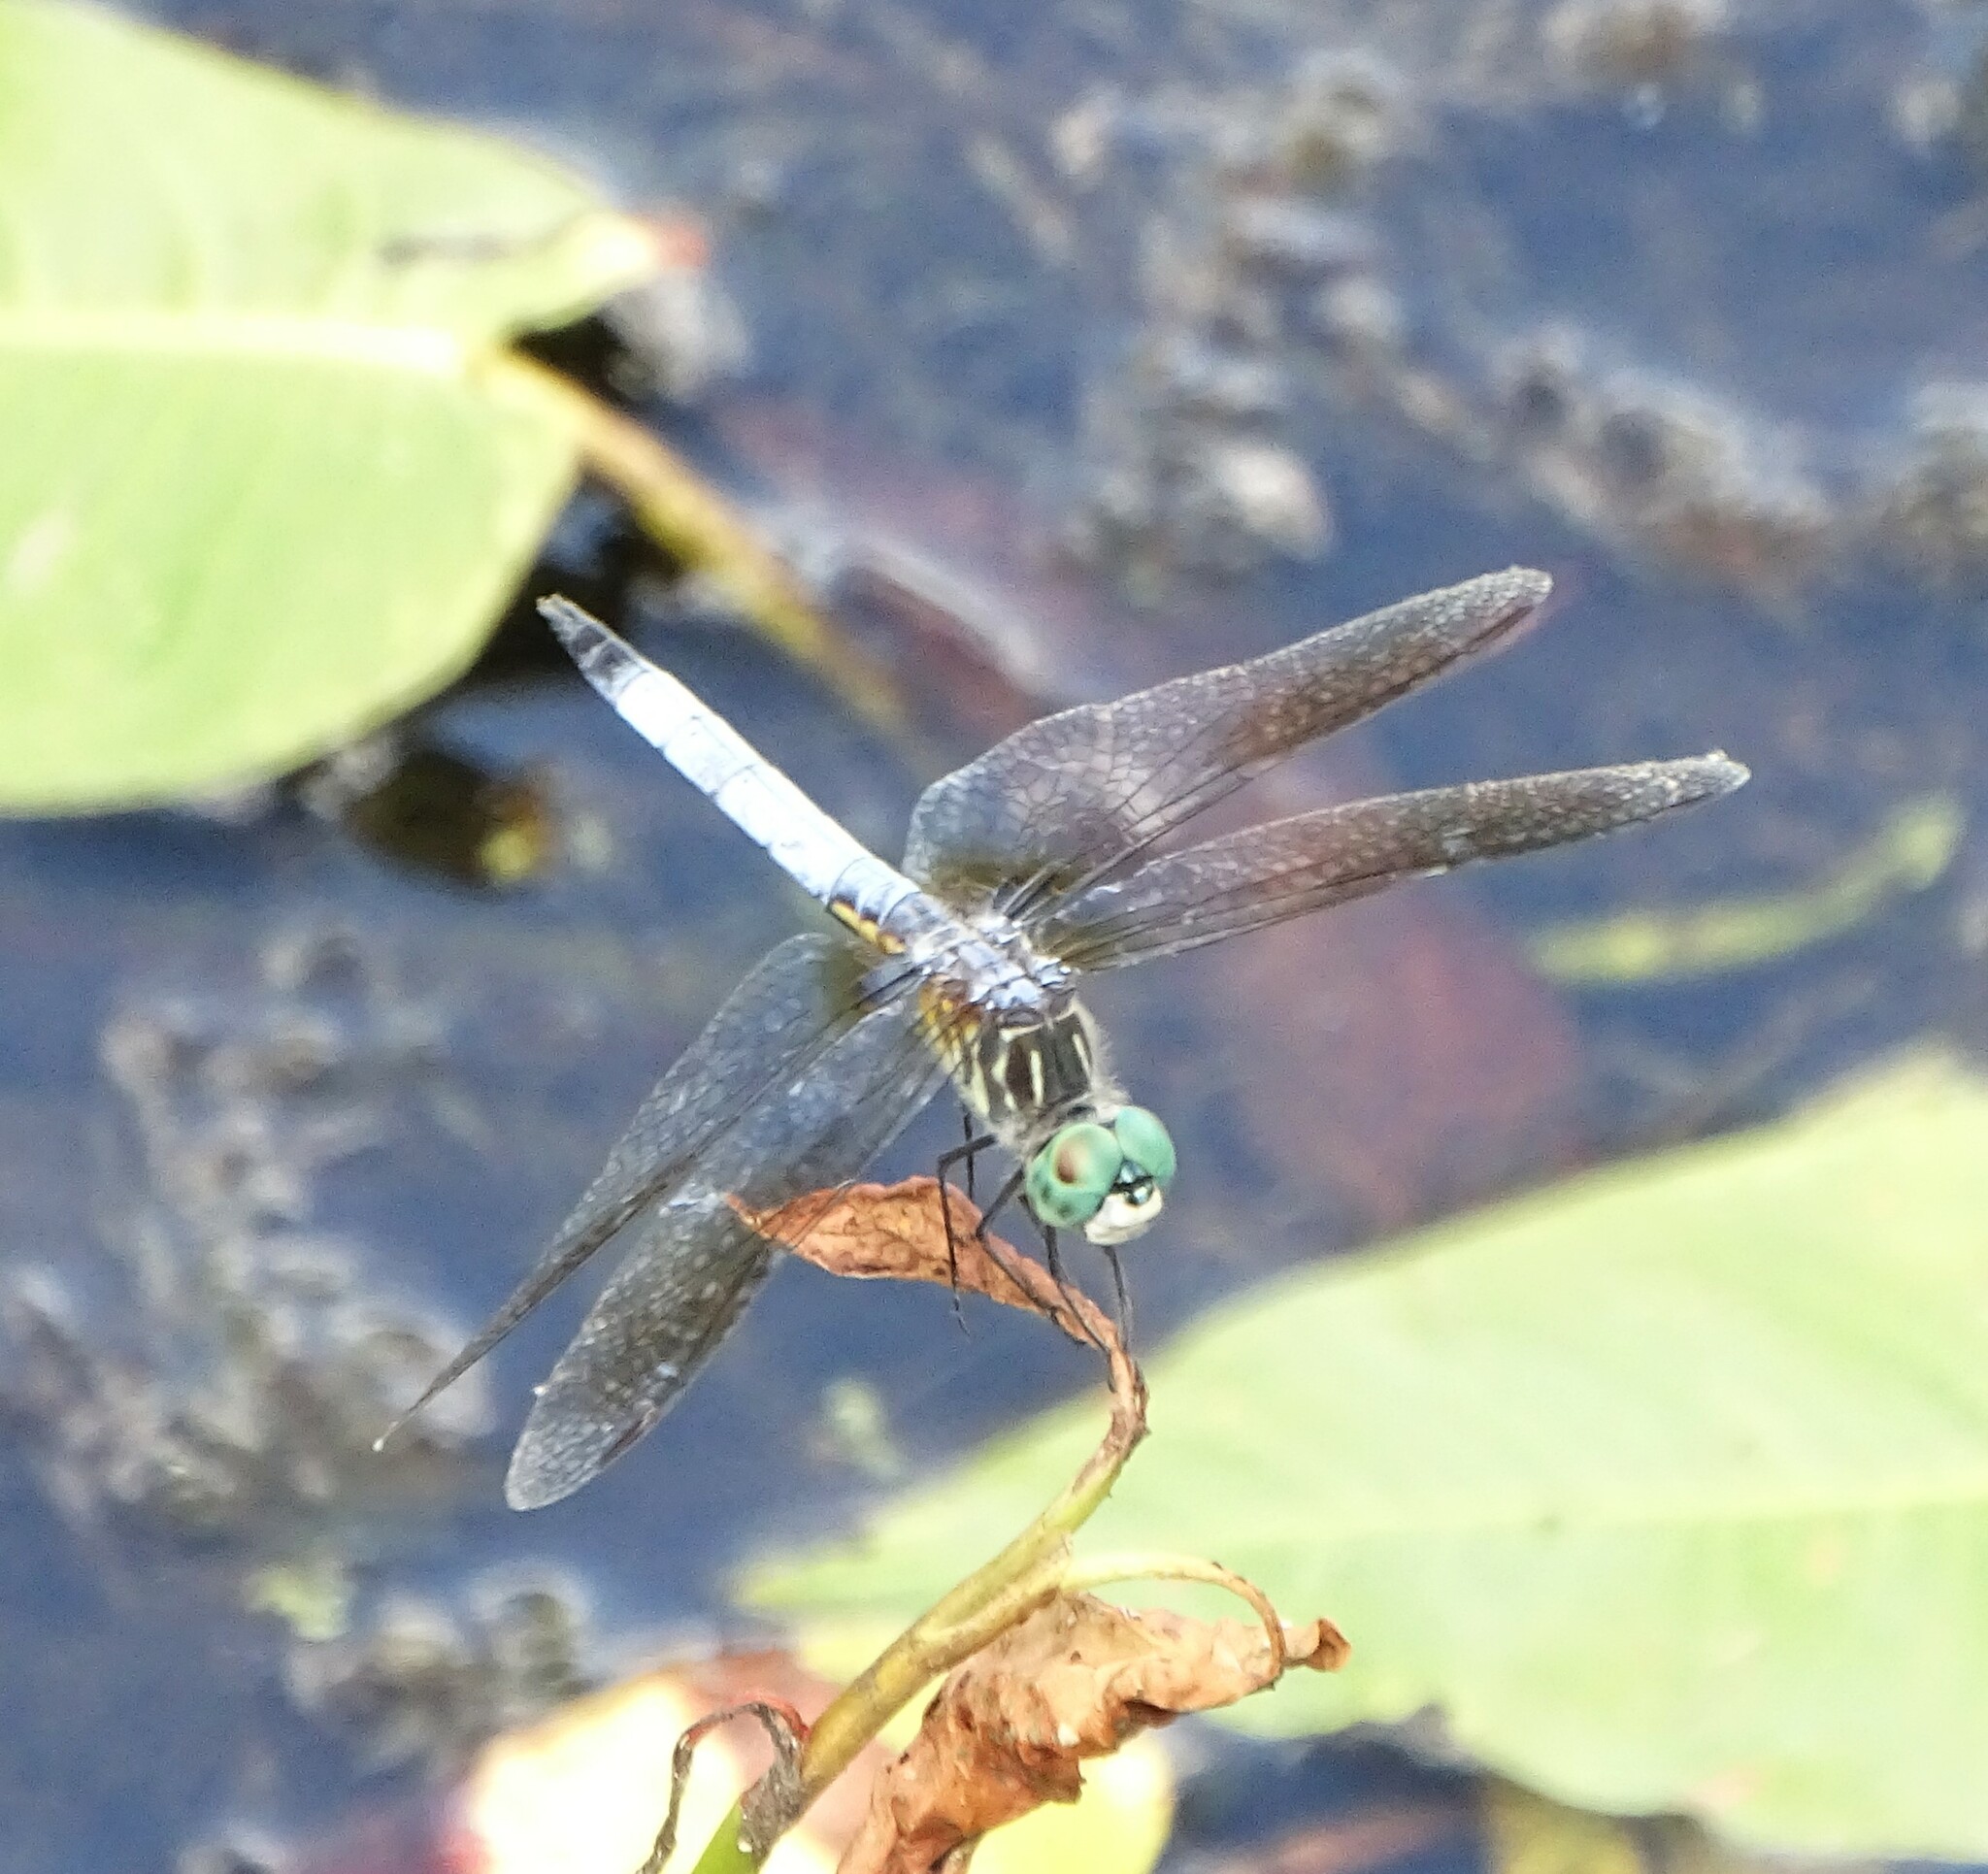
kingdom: Animalia
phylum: Arthropoda
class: Insecta
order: Odonata
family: Libellulidae
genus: Pachydiplax
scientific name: Pachydiplax longipennis
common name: Blue dasher
